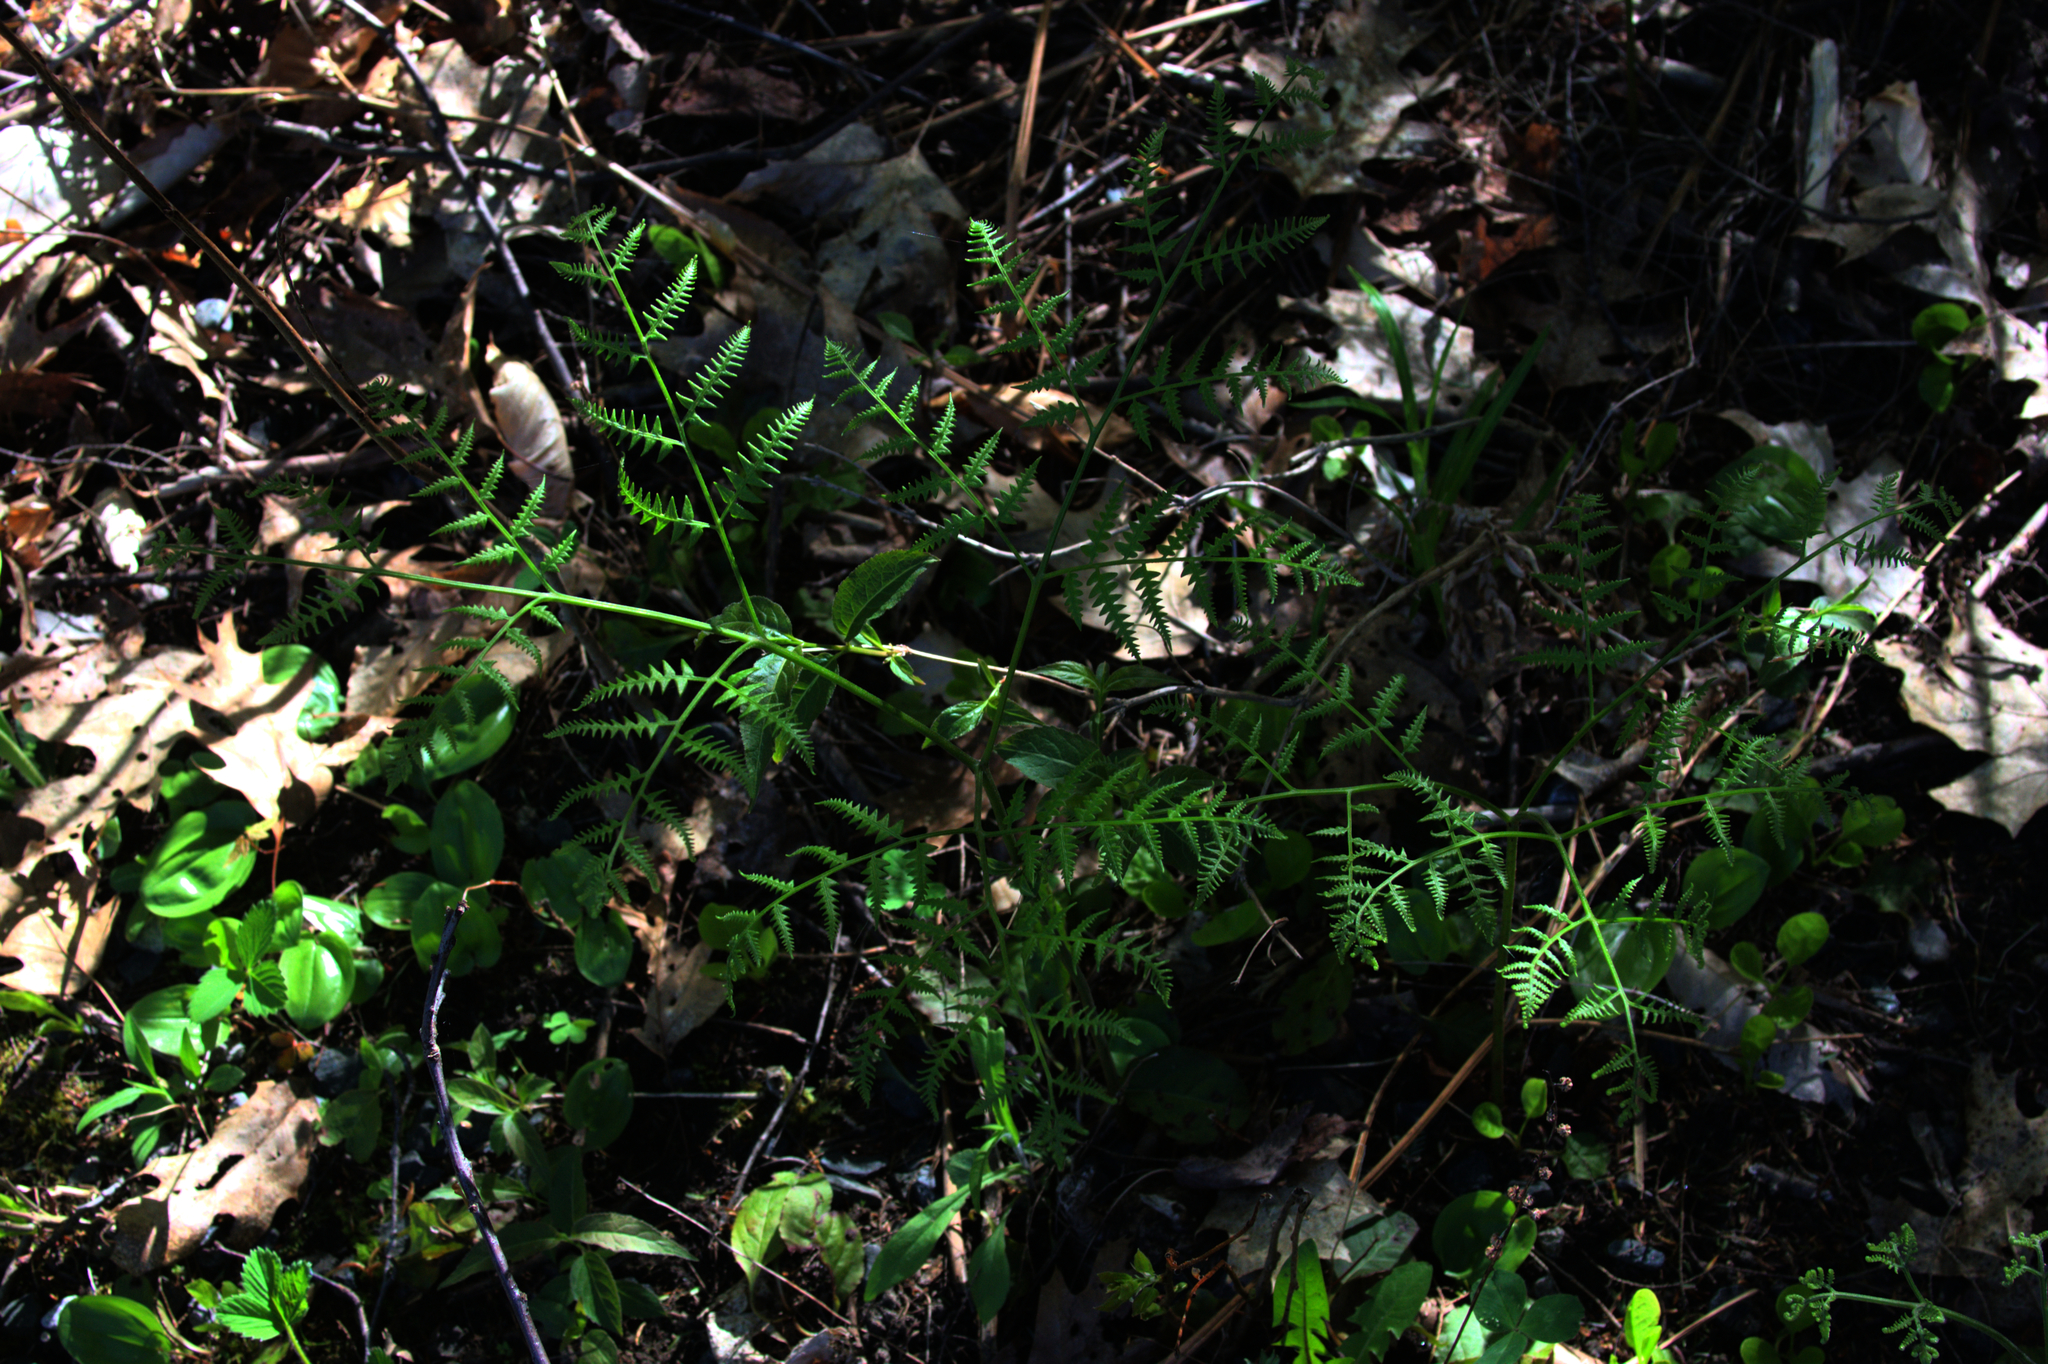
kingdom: Plantae
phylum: Tracheophyta
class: Polypodiopsida
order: Polypodiales
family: Dennstaedtiaceae
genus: Pteridium
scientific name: Pteridium aquilinum
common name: Bracken
